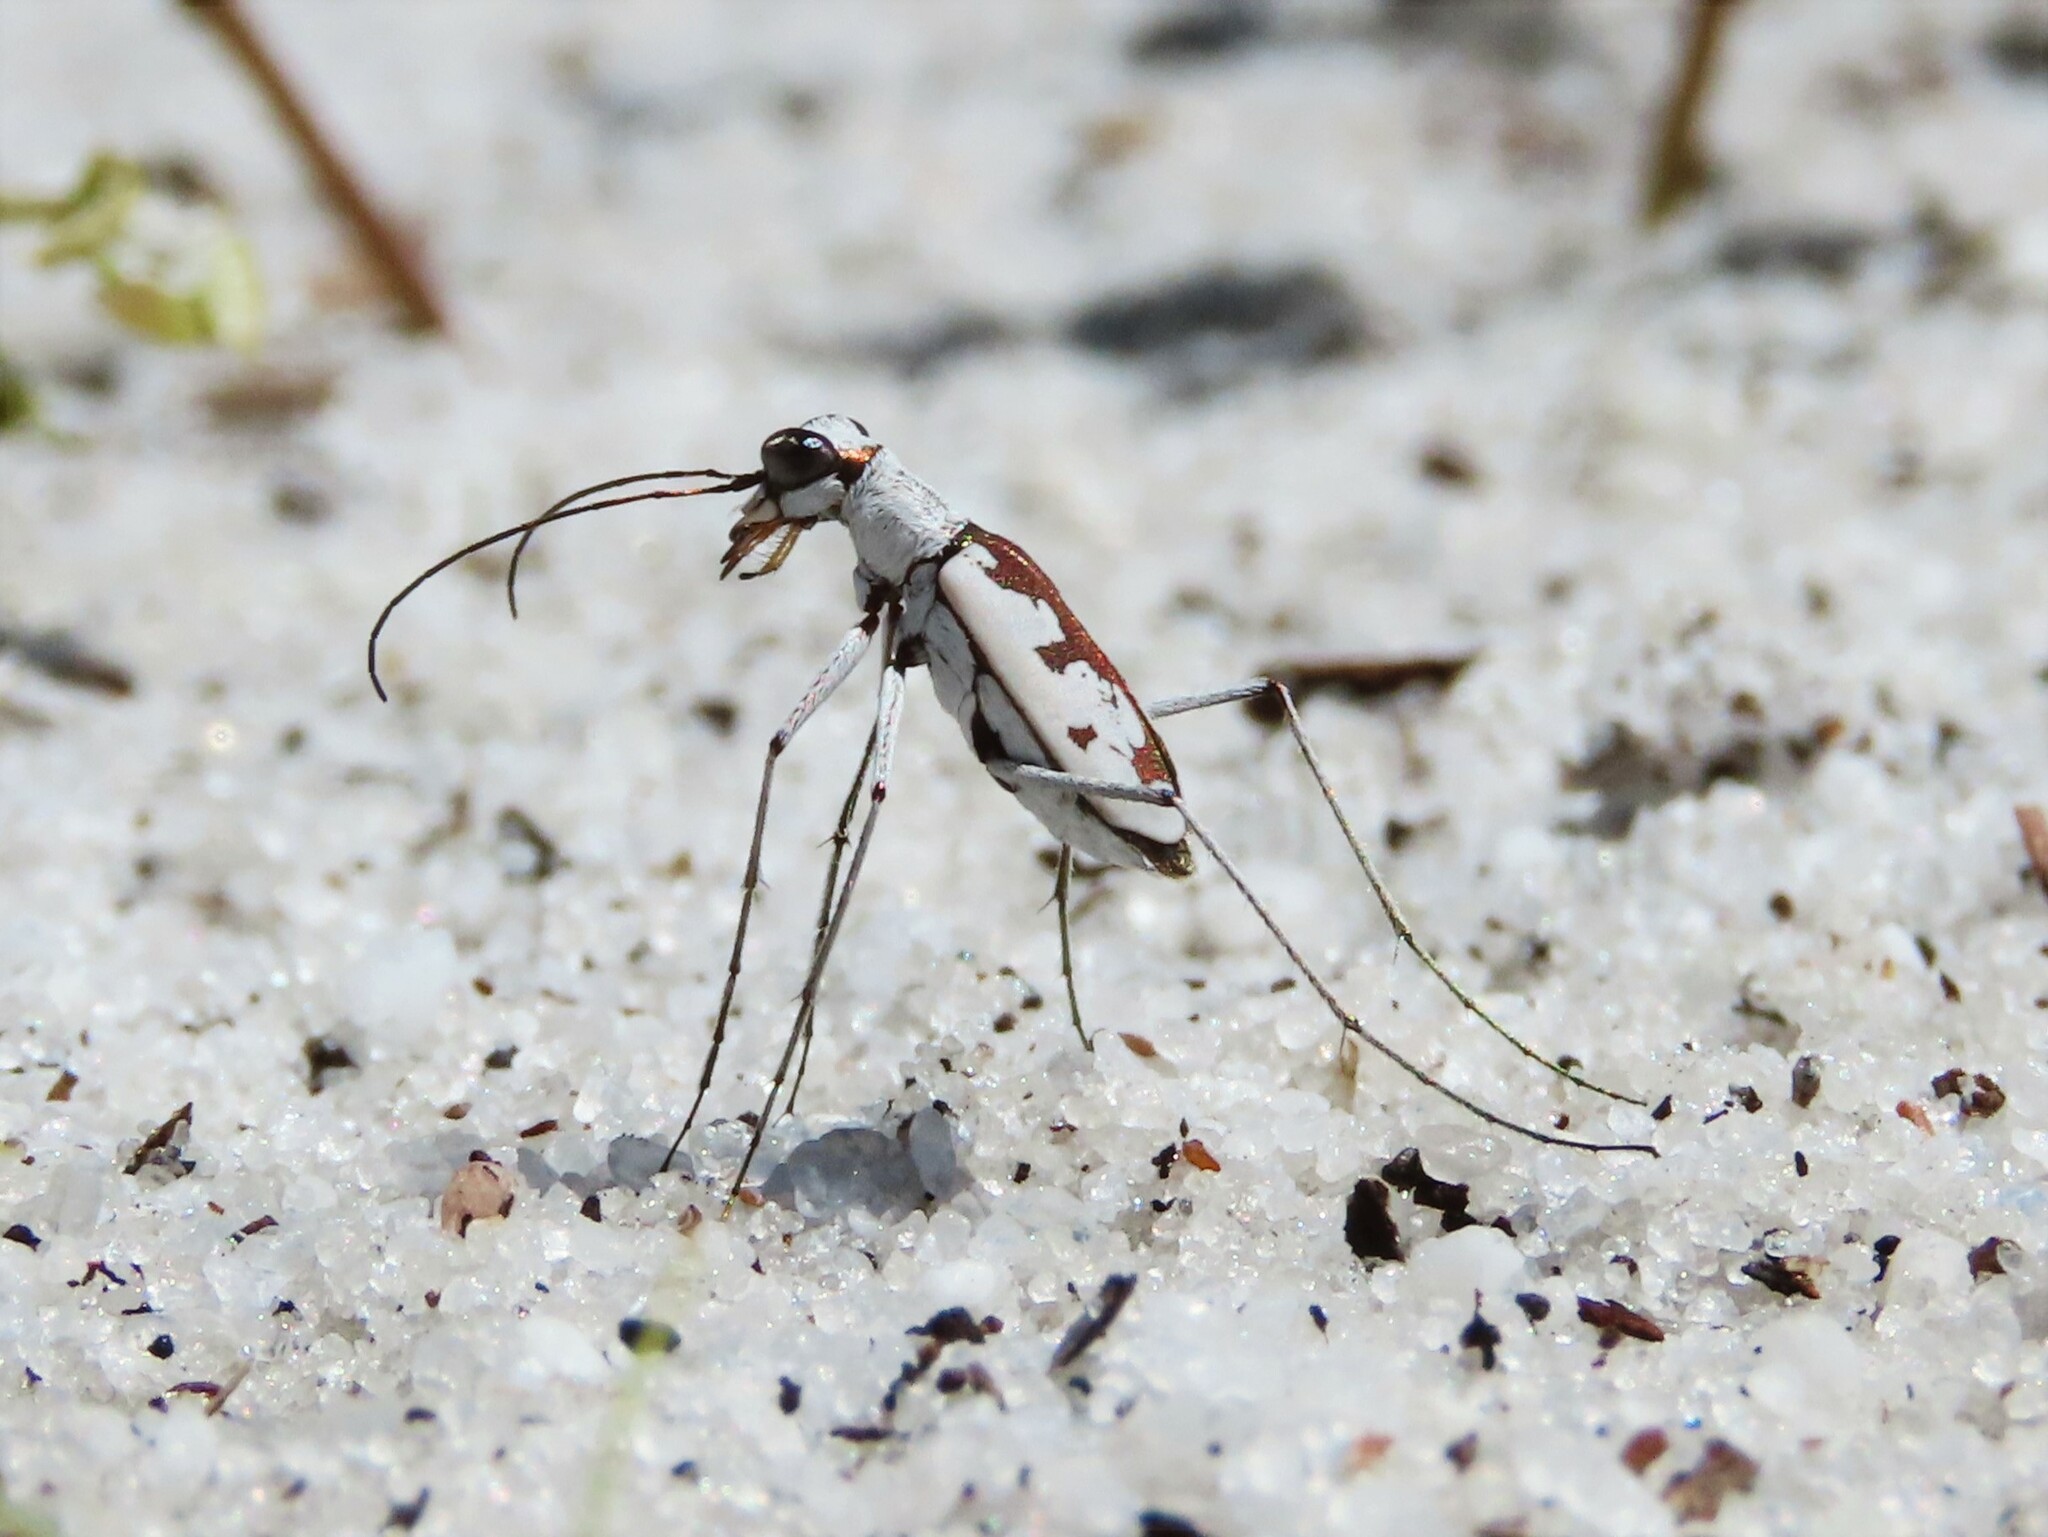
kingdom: Animalia
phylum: Arthropoda
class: Insecta
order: Coleoptera
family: Carabidae
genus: Ellipsoptera
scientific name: Ellipsoptera hirtilabris
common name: Moustached tiger beetle
